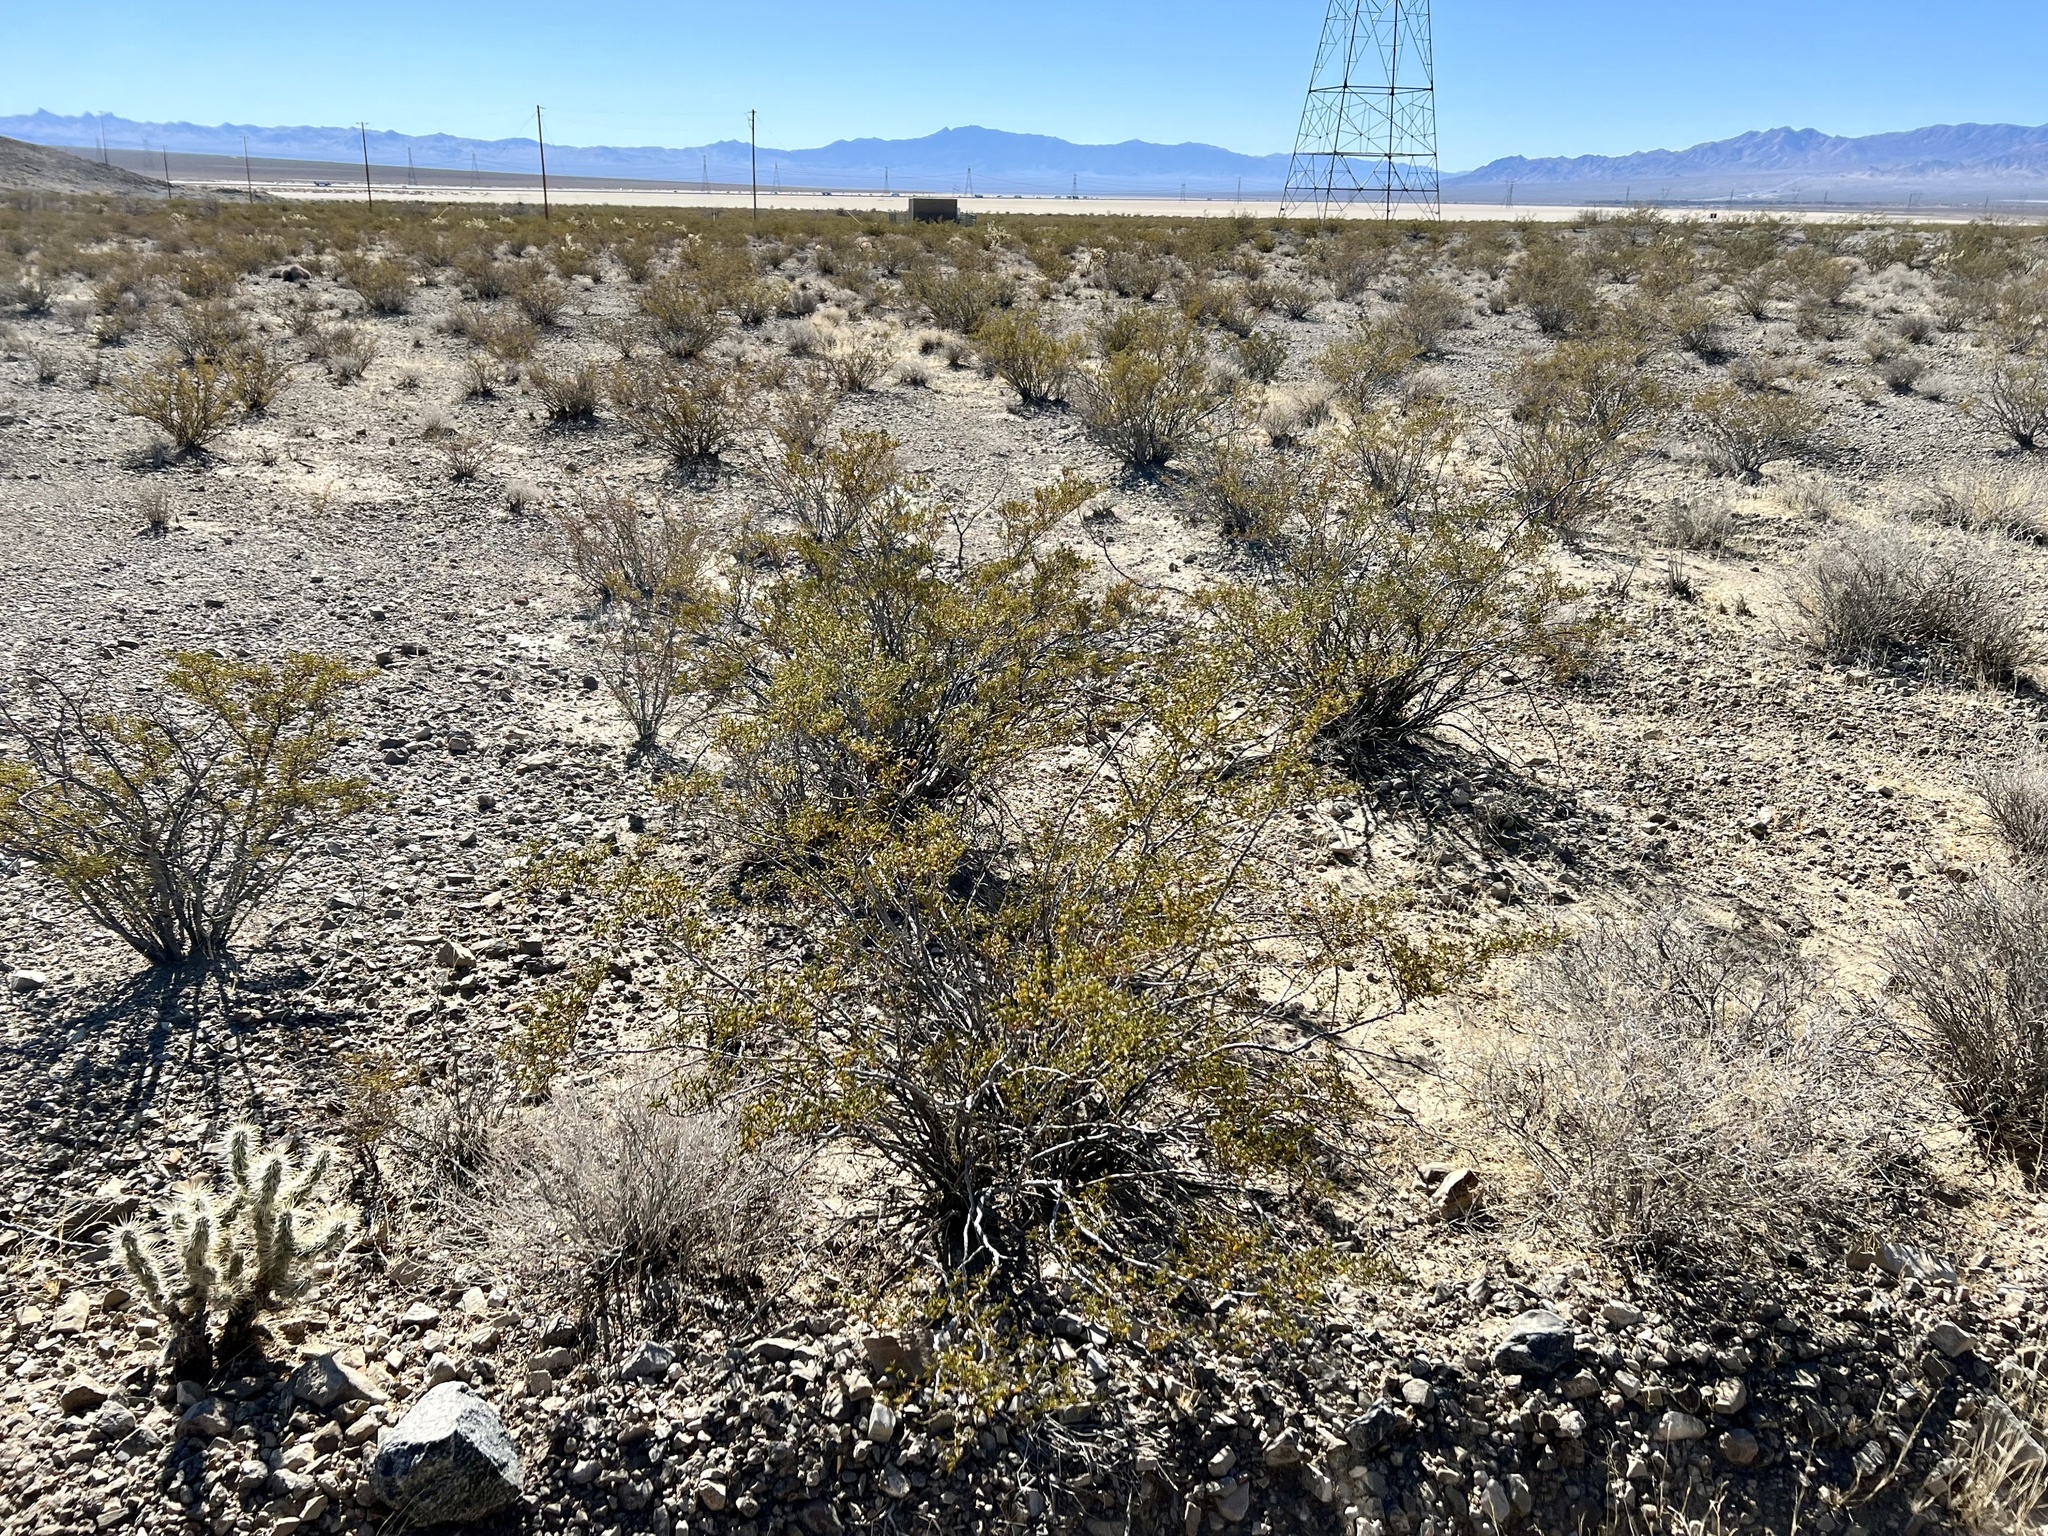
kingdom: Plantae
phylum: Tracheophyta
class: Magnoliopsida
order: Zygophyllales
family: Zygophyllaceae
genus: Larrea
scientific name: Larrea tridentata
